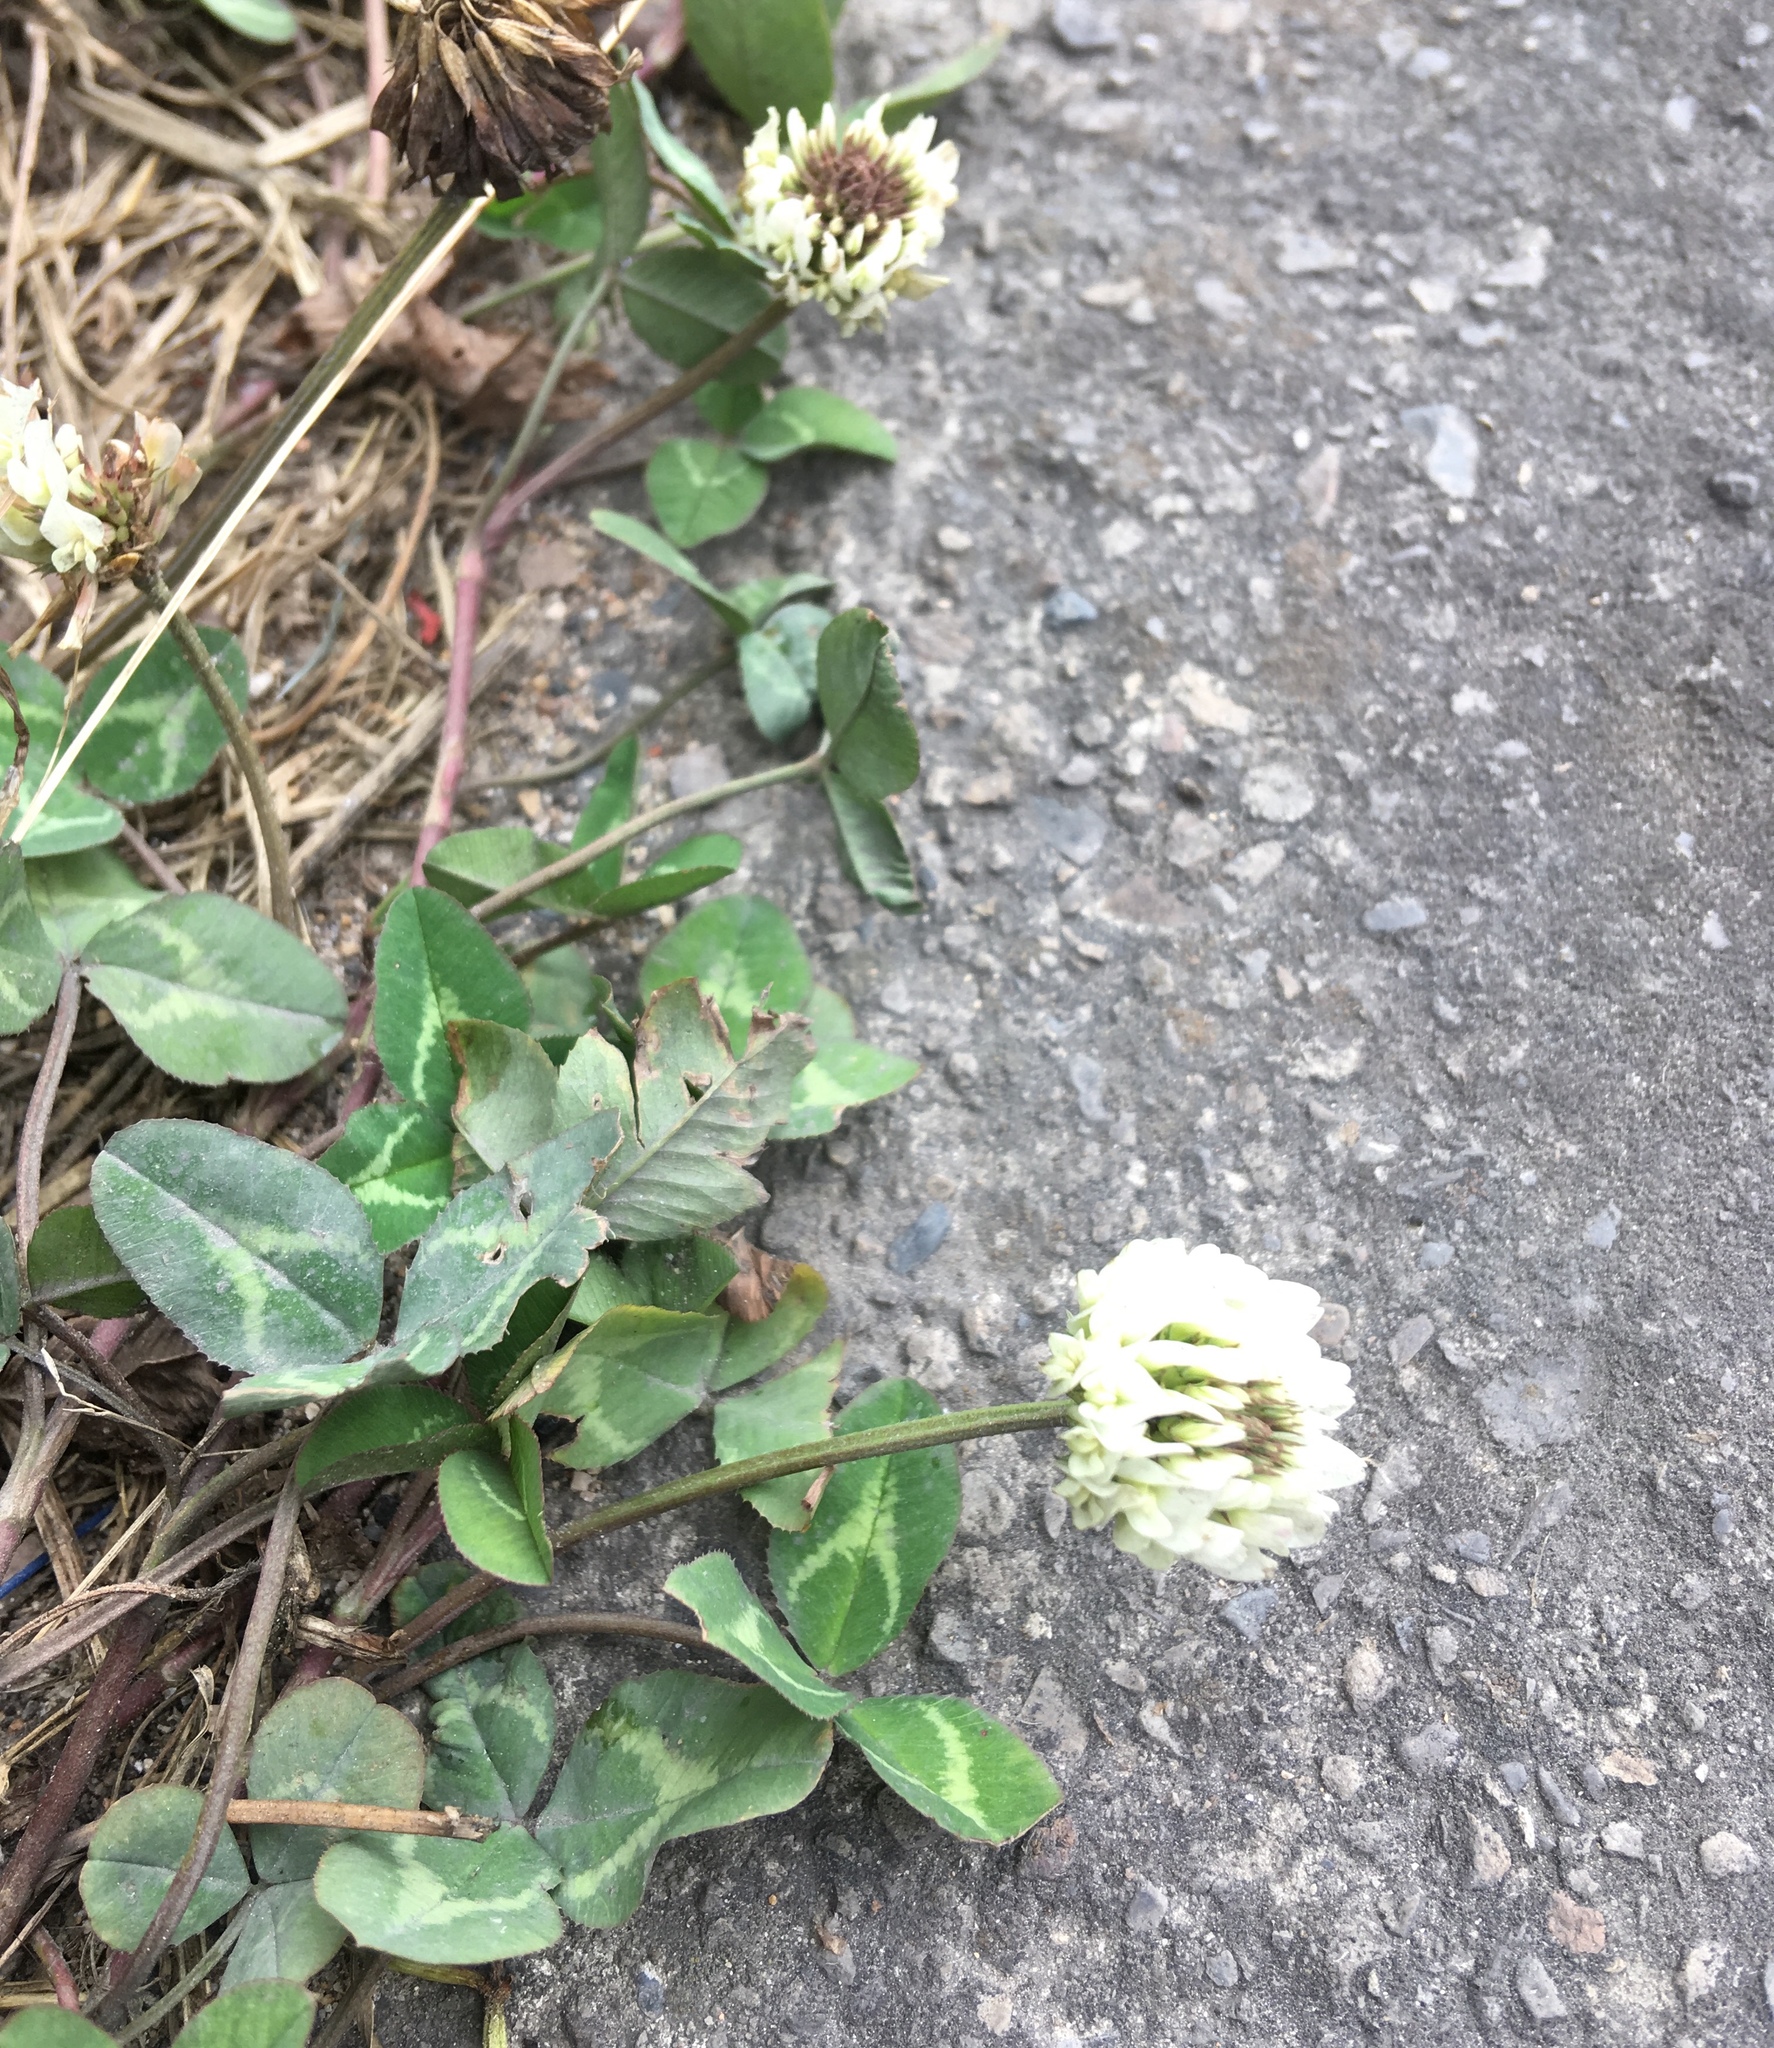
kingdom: Plantae
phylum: Tracheophyta
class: Magnoliopsida
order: Fabales
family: Fabaceae
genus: Trifolium
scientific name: Trifolium repens
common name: White clover
